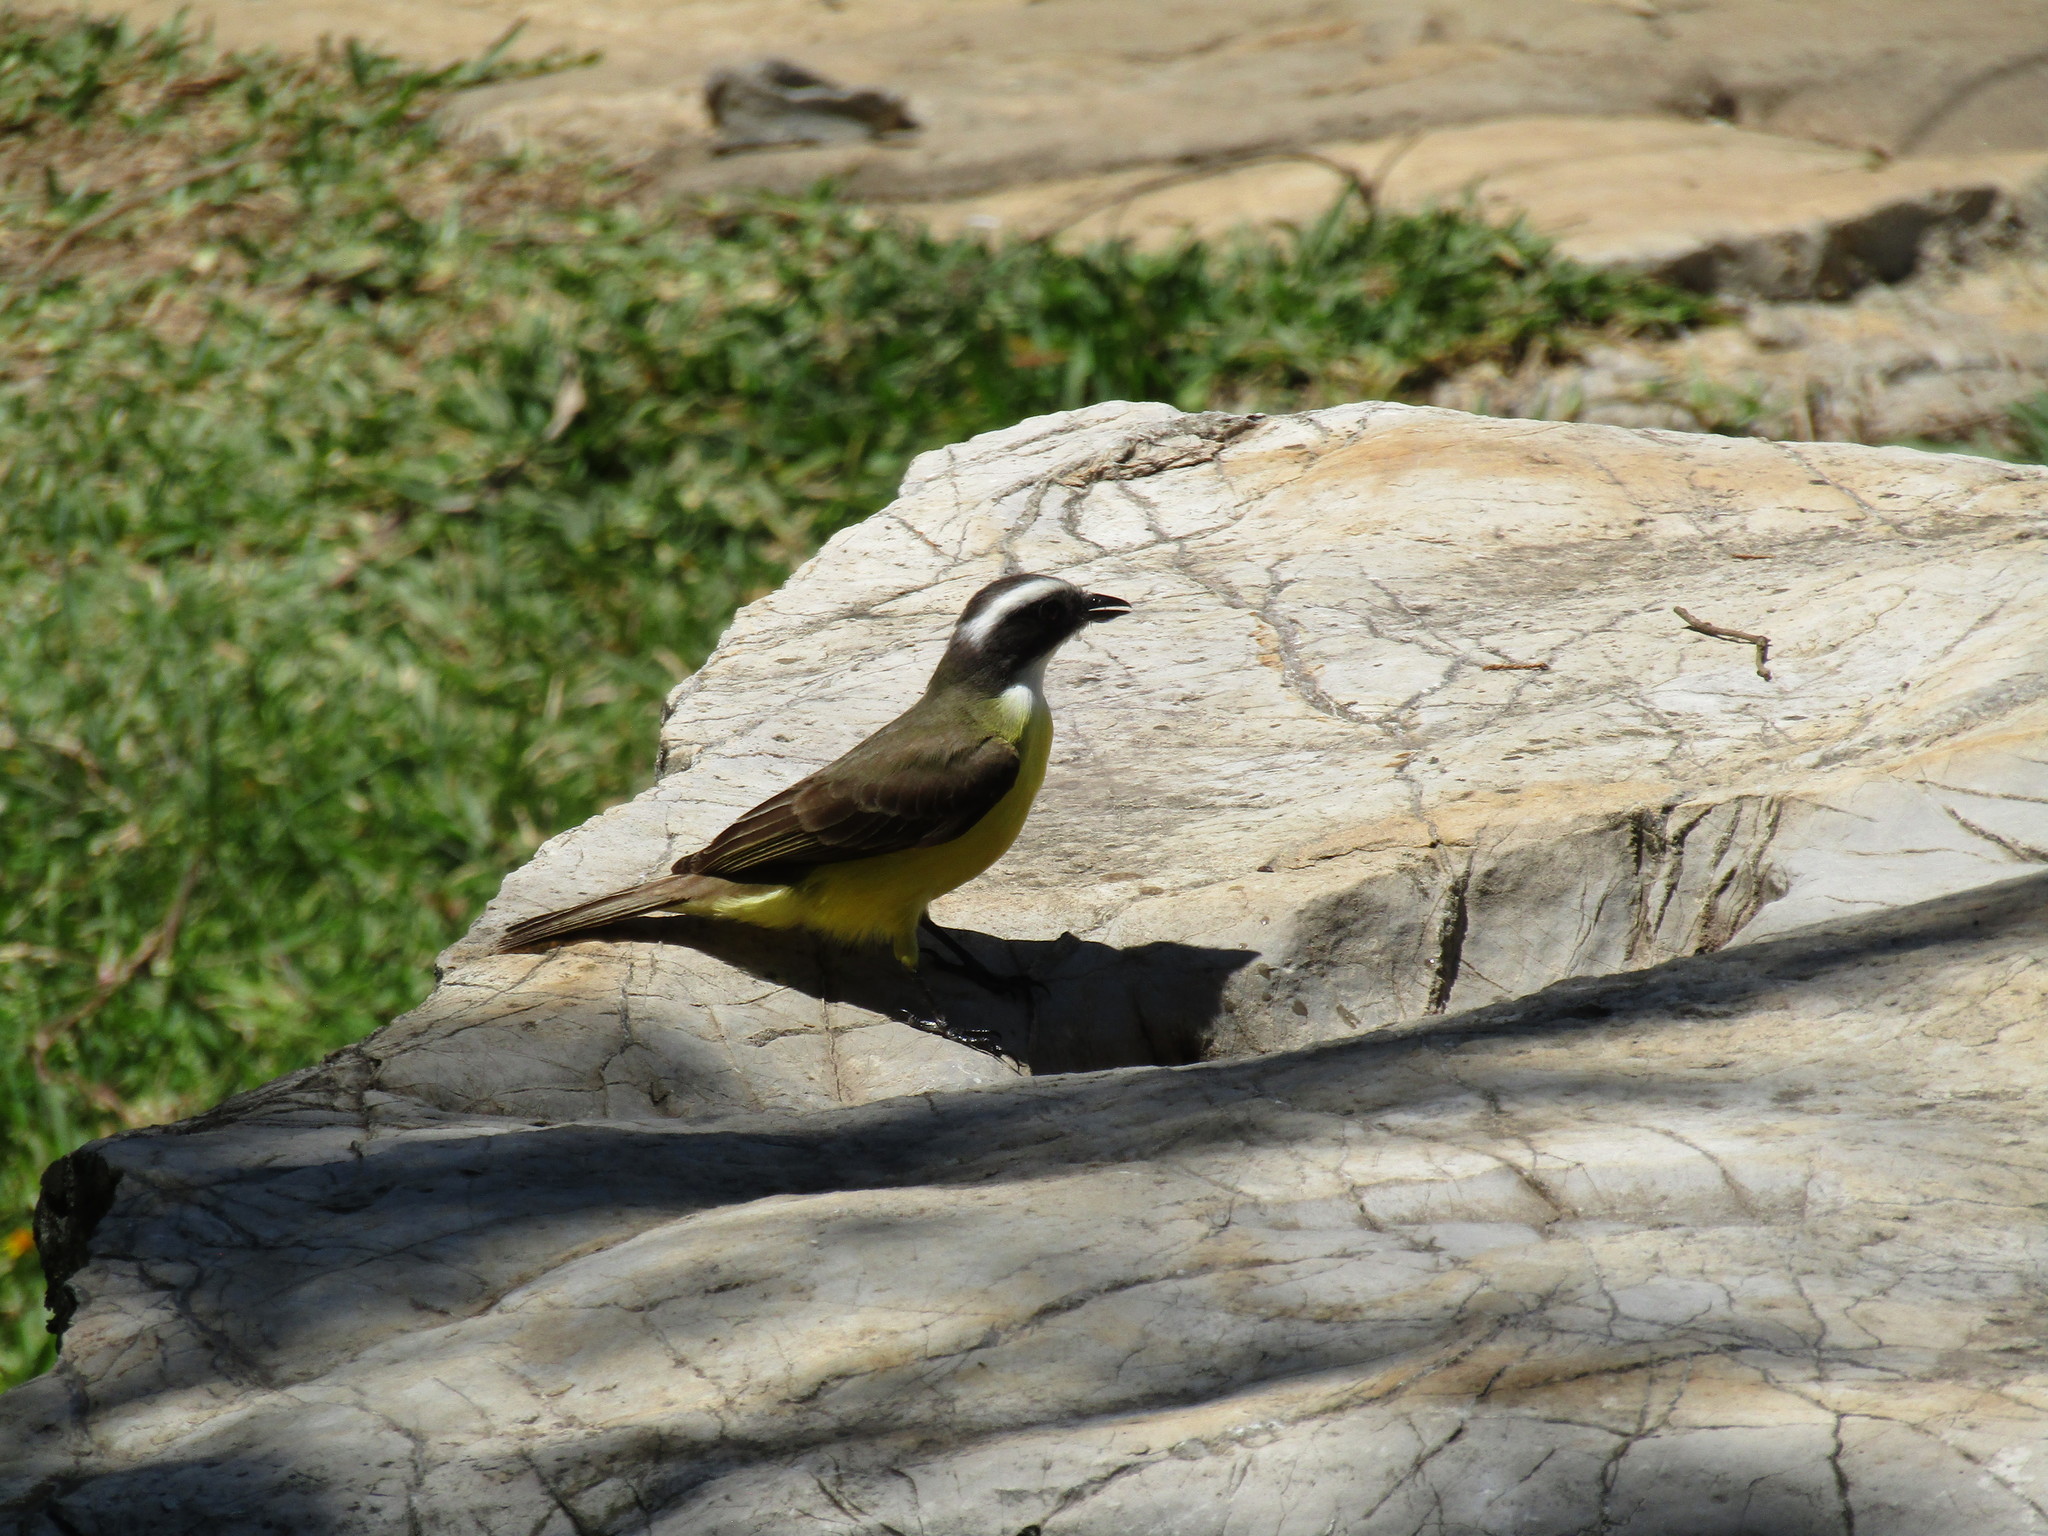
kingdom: Animalia
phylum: Chordata
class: Aves
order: Passeriformes
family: Tyrannidae
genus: Myiozetetes
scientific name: Myiozetetes similis
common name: Social flycatcher
